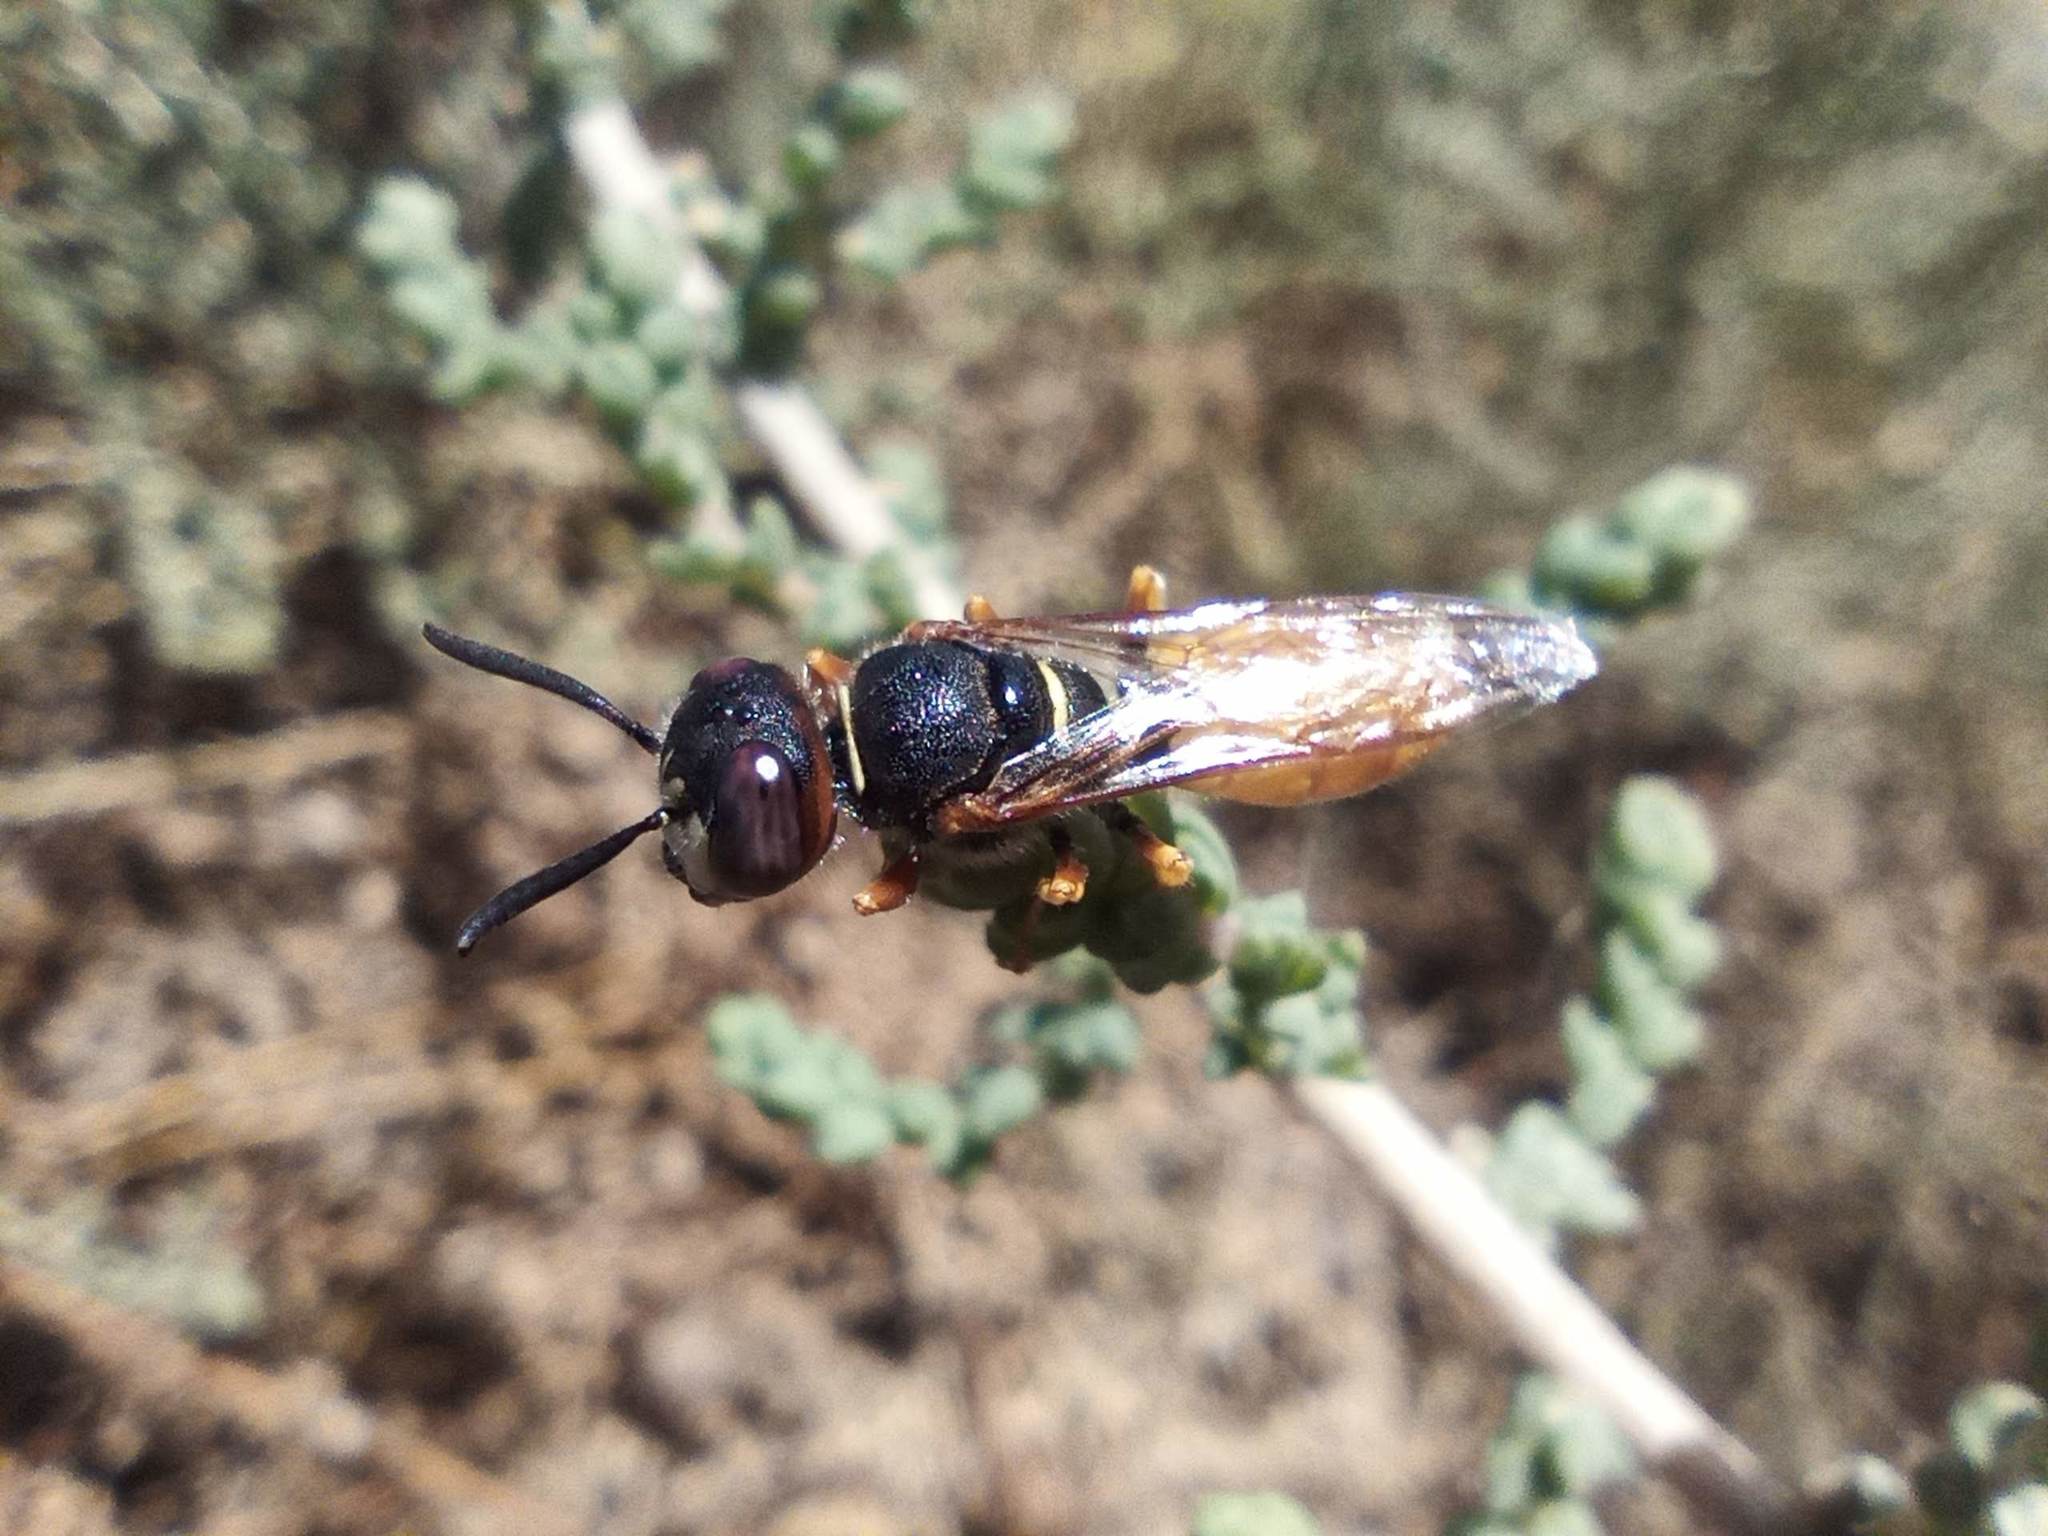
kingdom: Animalia
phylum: Arthropoda
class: Insecta
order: Hymenoptera
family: Crabronidae
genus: Philanthus
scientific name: Philanthus triangulum
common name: Bee wolf
